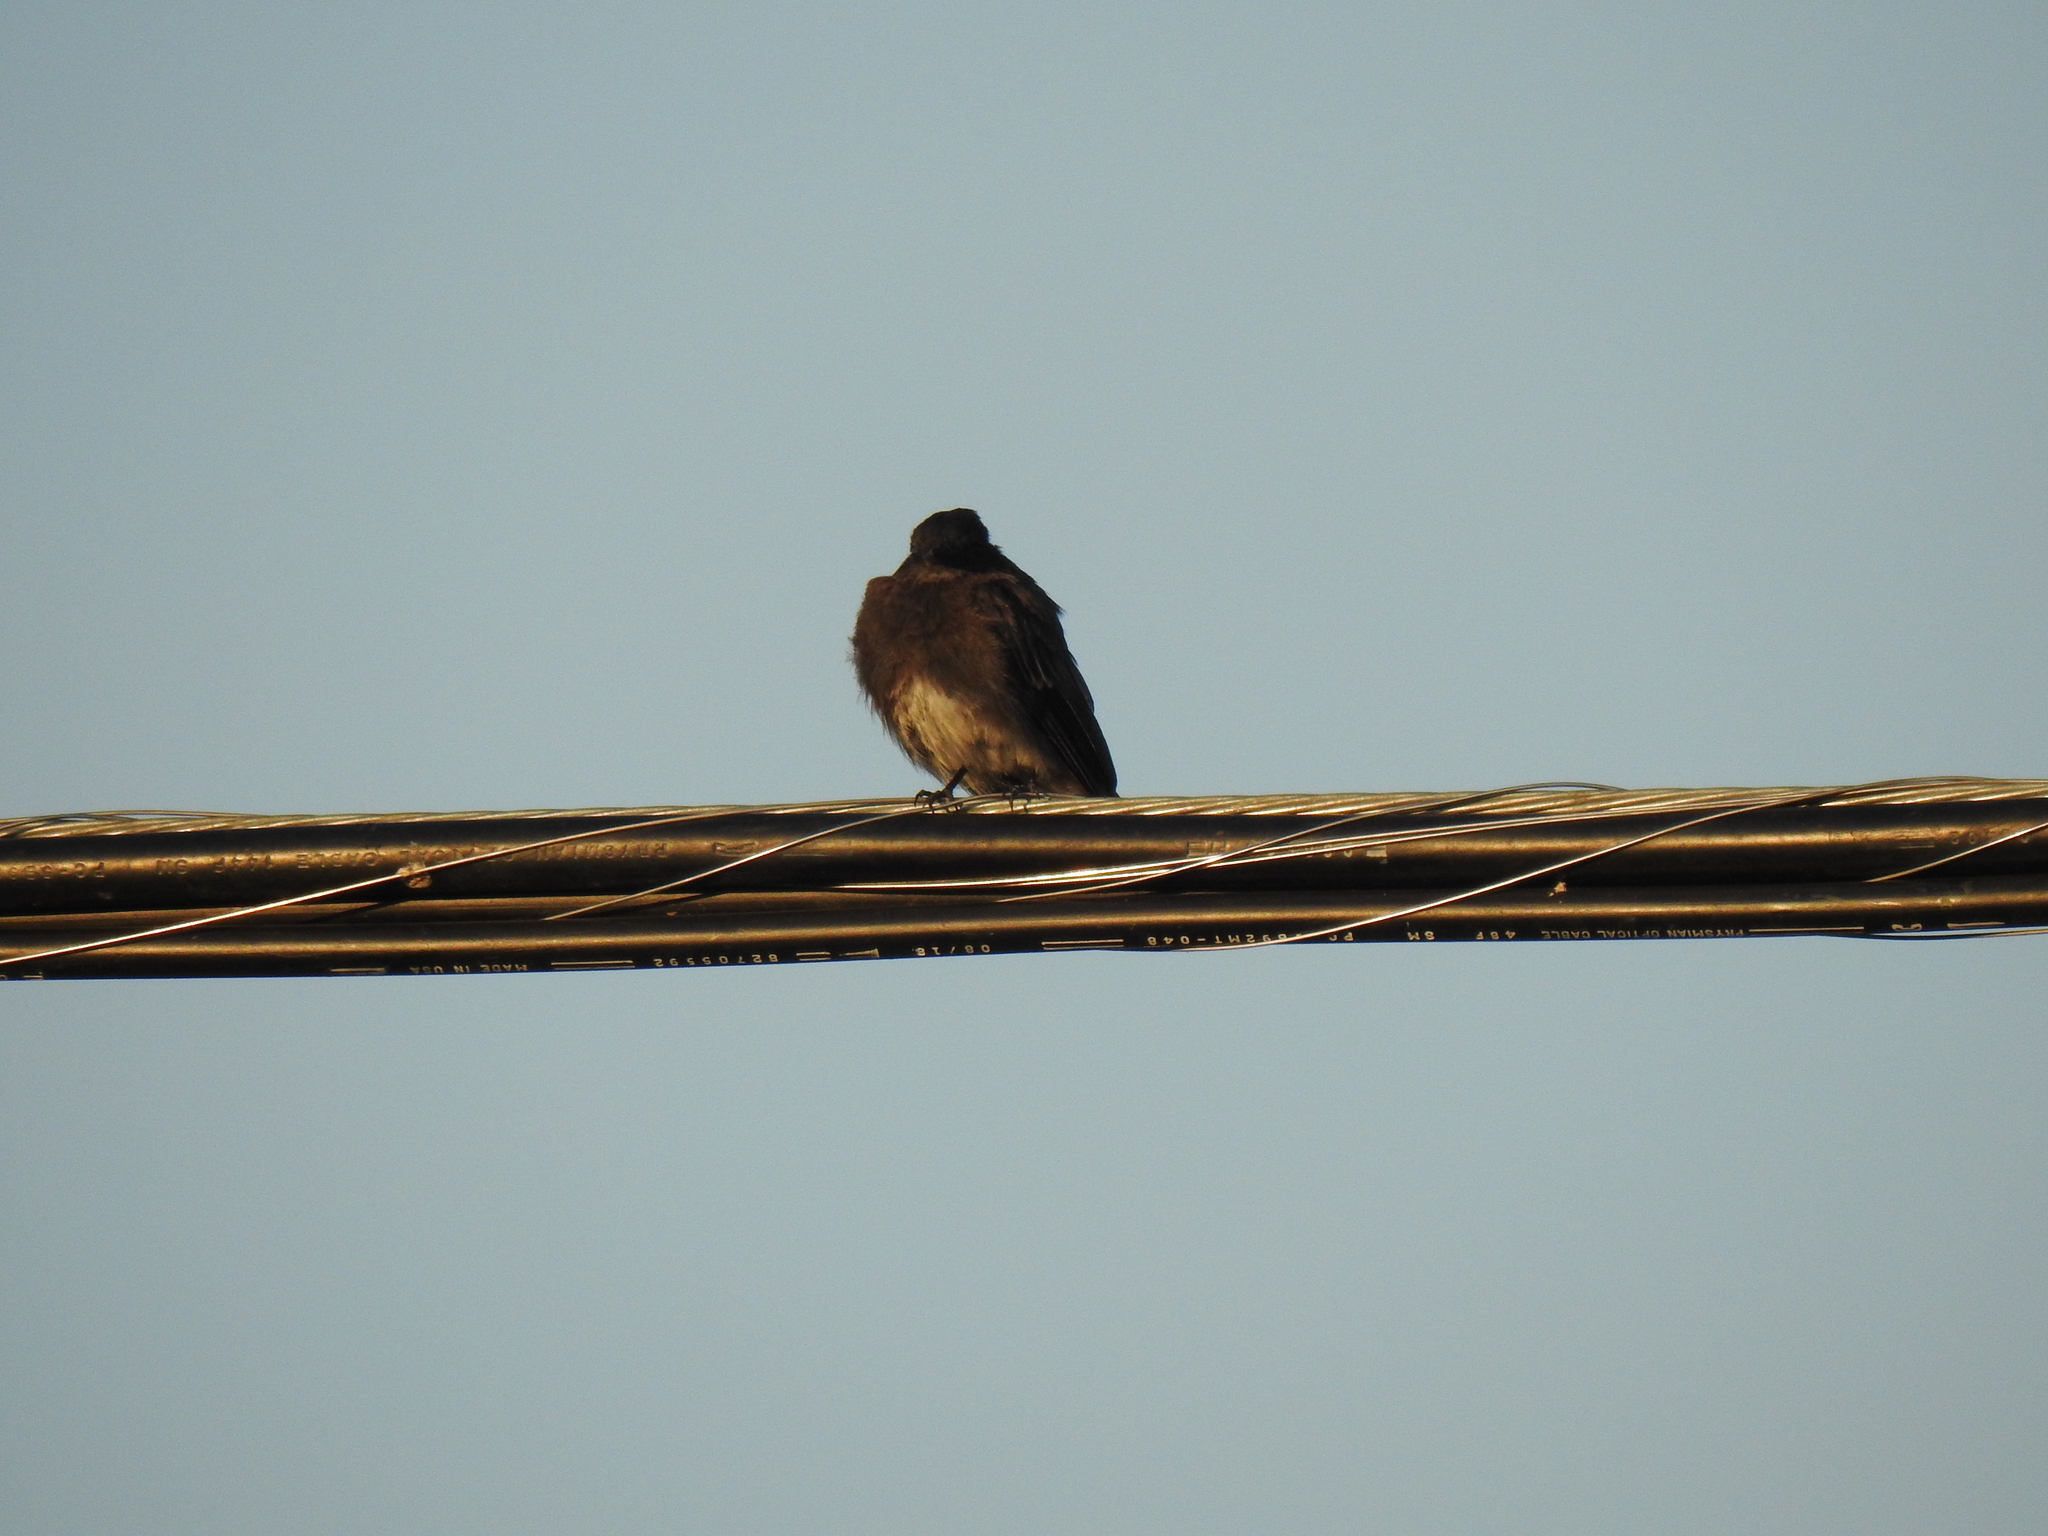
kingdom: Animalia
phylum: Chordata
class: Aves
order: Passeriformes
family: Tyrannidae
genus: Sayornis
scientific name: Sayornis nigricans
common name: Black phoebe
